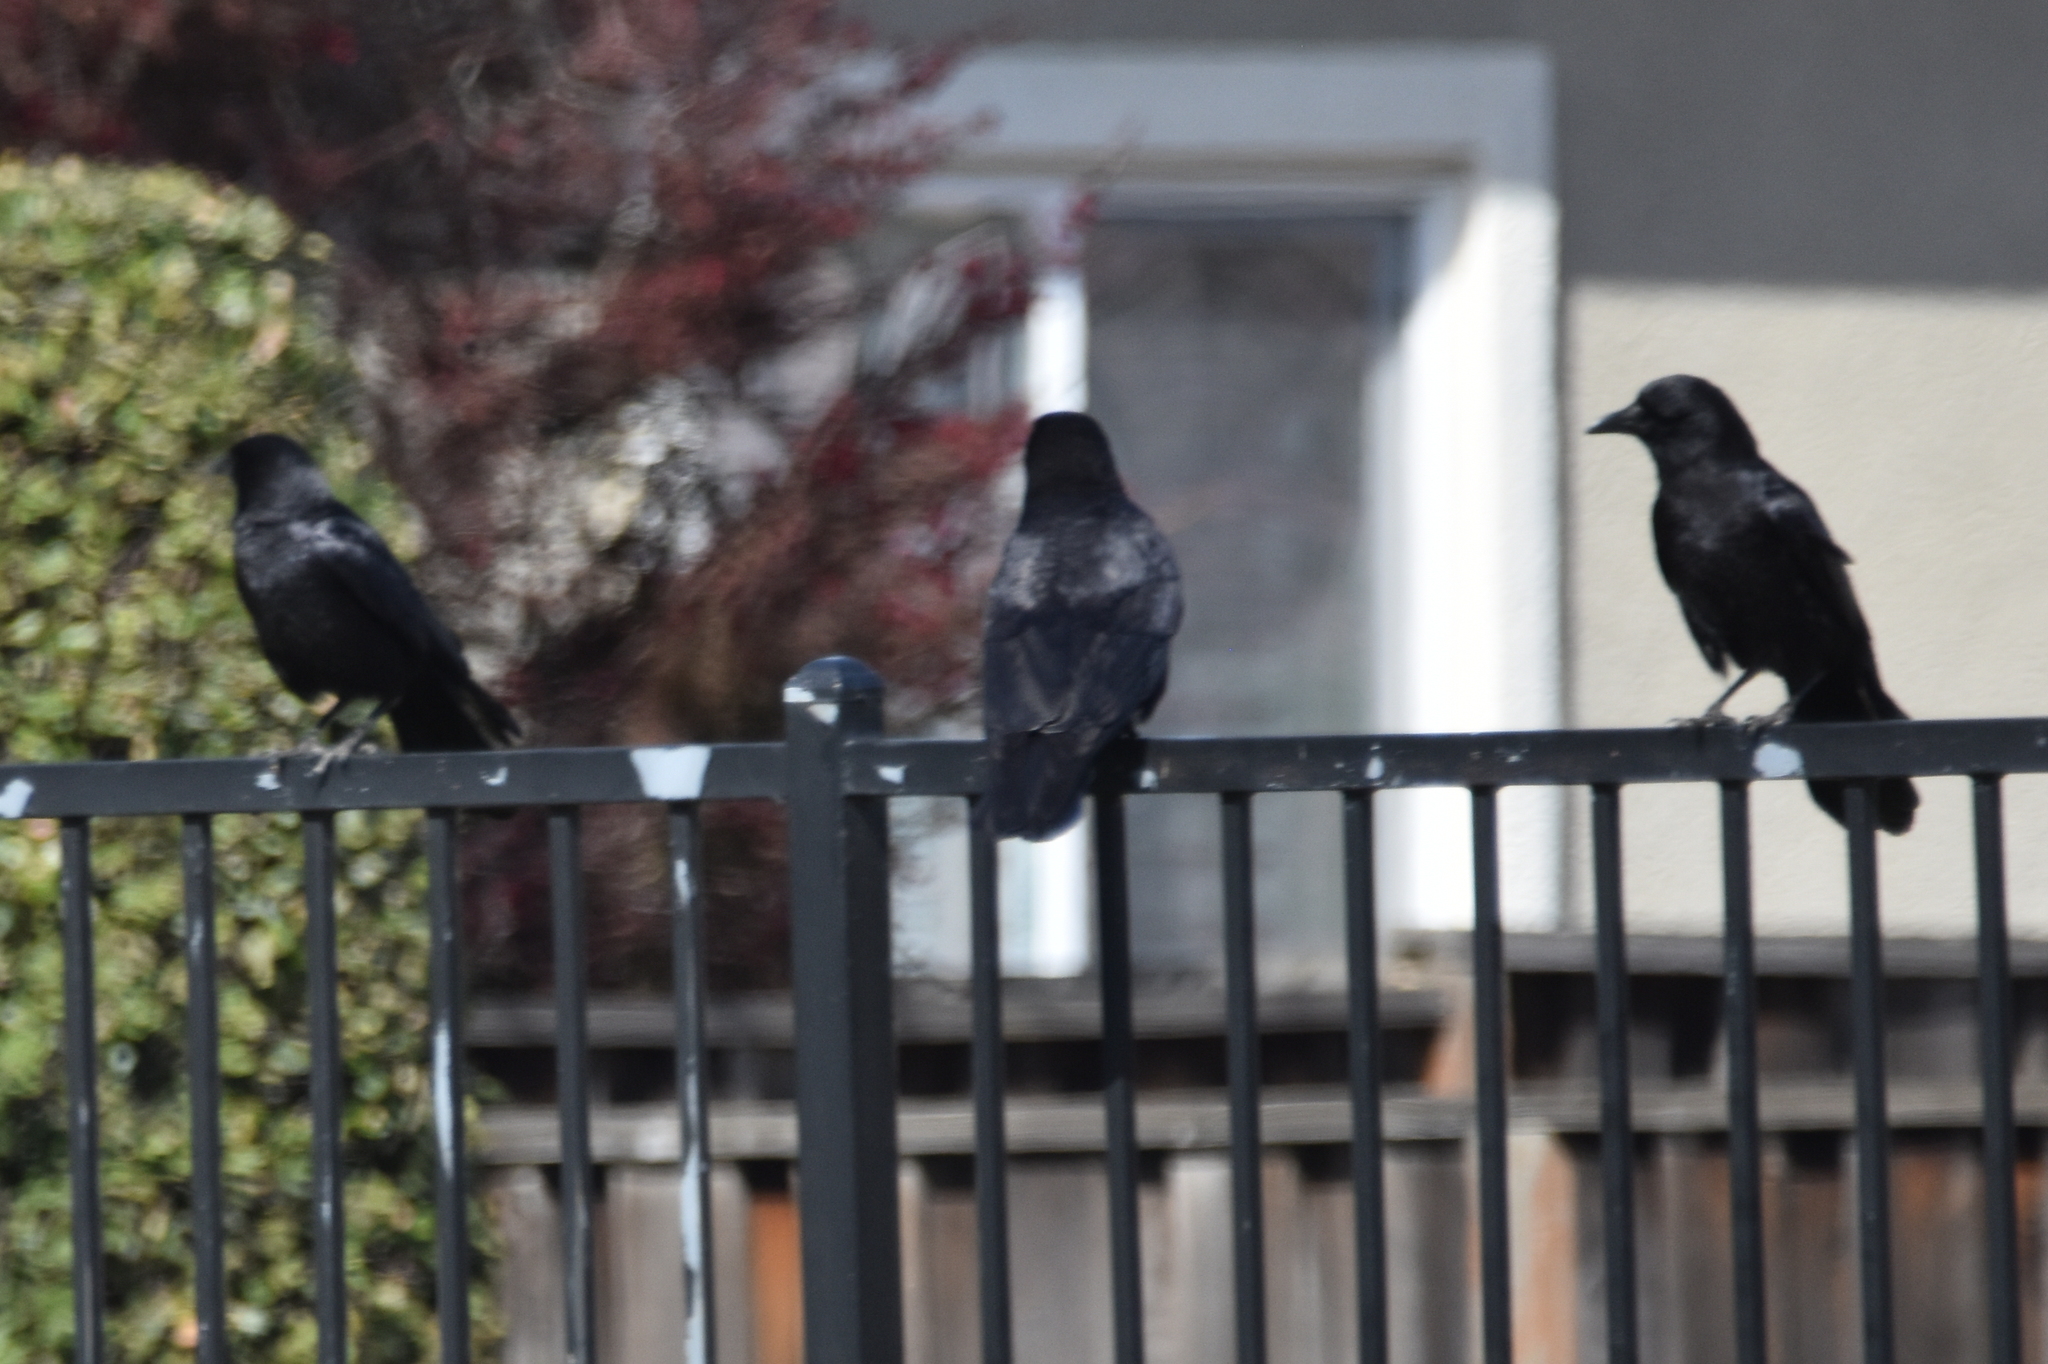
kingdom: Animalia
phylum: Chordata
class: Aves
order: Passeriformes
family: Corvidae
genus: Corvus
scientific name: Corvus brachyrhynchos
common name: American crow
